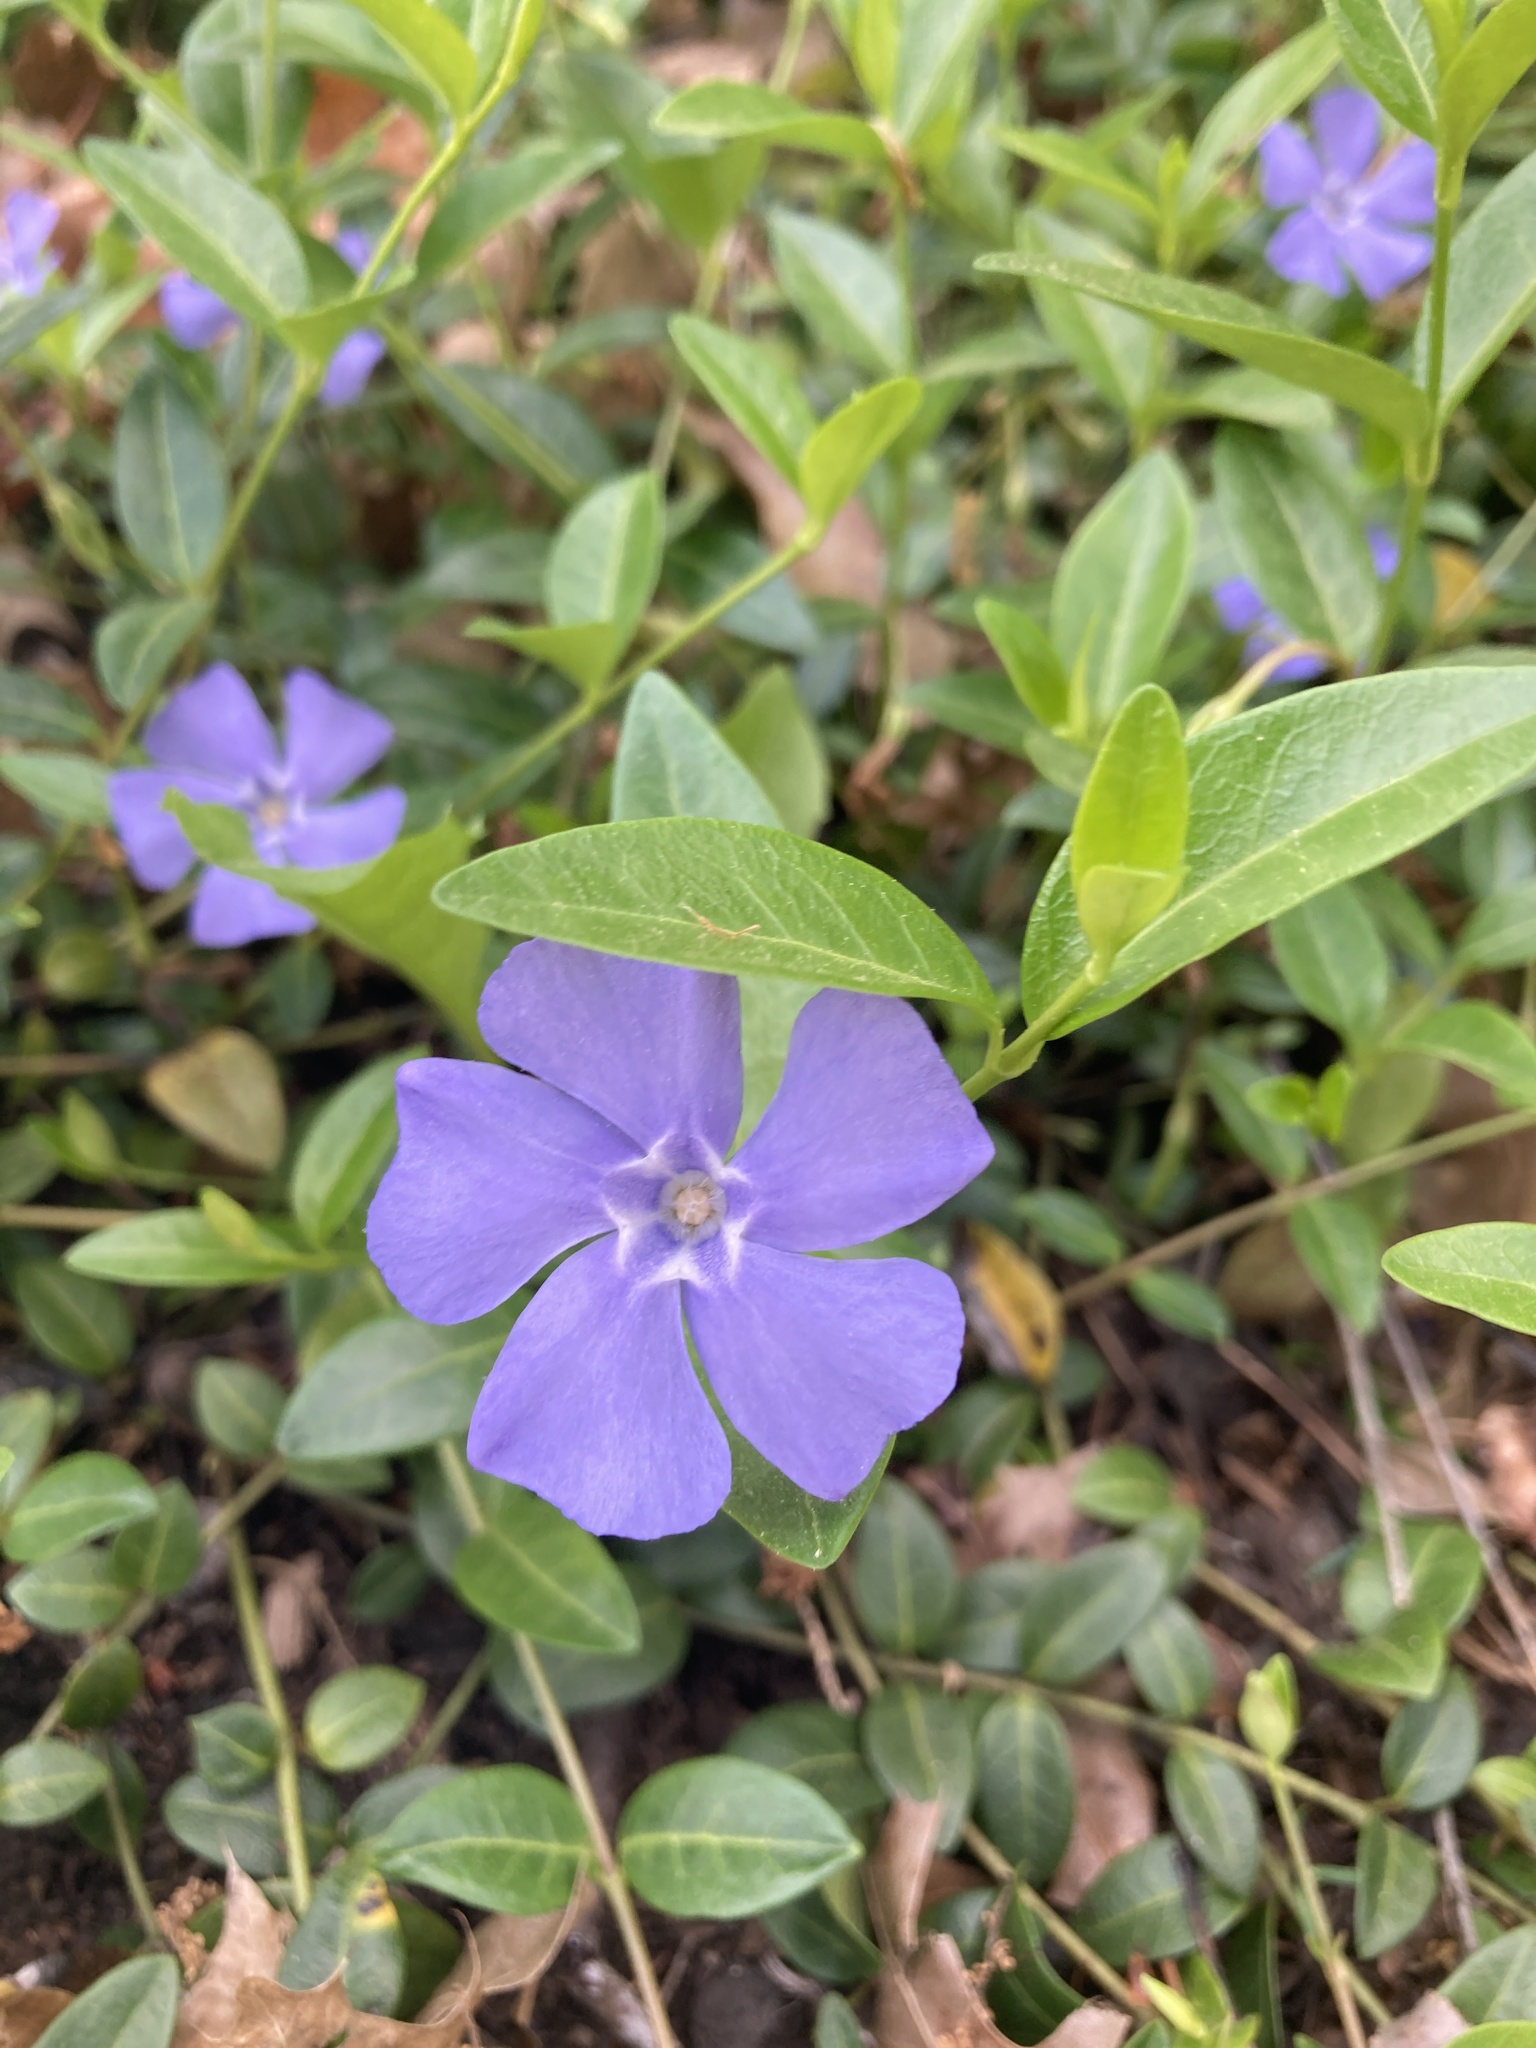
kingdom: Plantae
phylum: Tracheophyta
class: Magnoliopsida
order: Gentianales
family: Apocynaceae
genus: Vinca
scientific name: Vinca minor
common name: Lesser periwinkle
